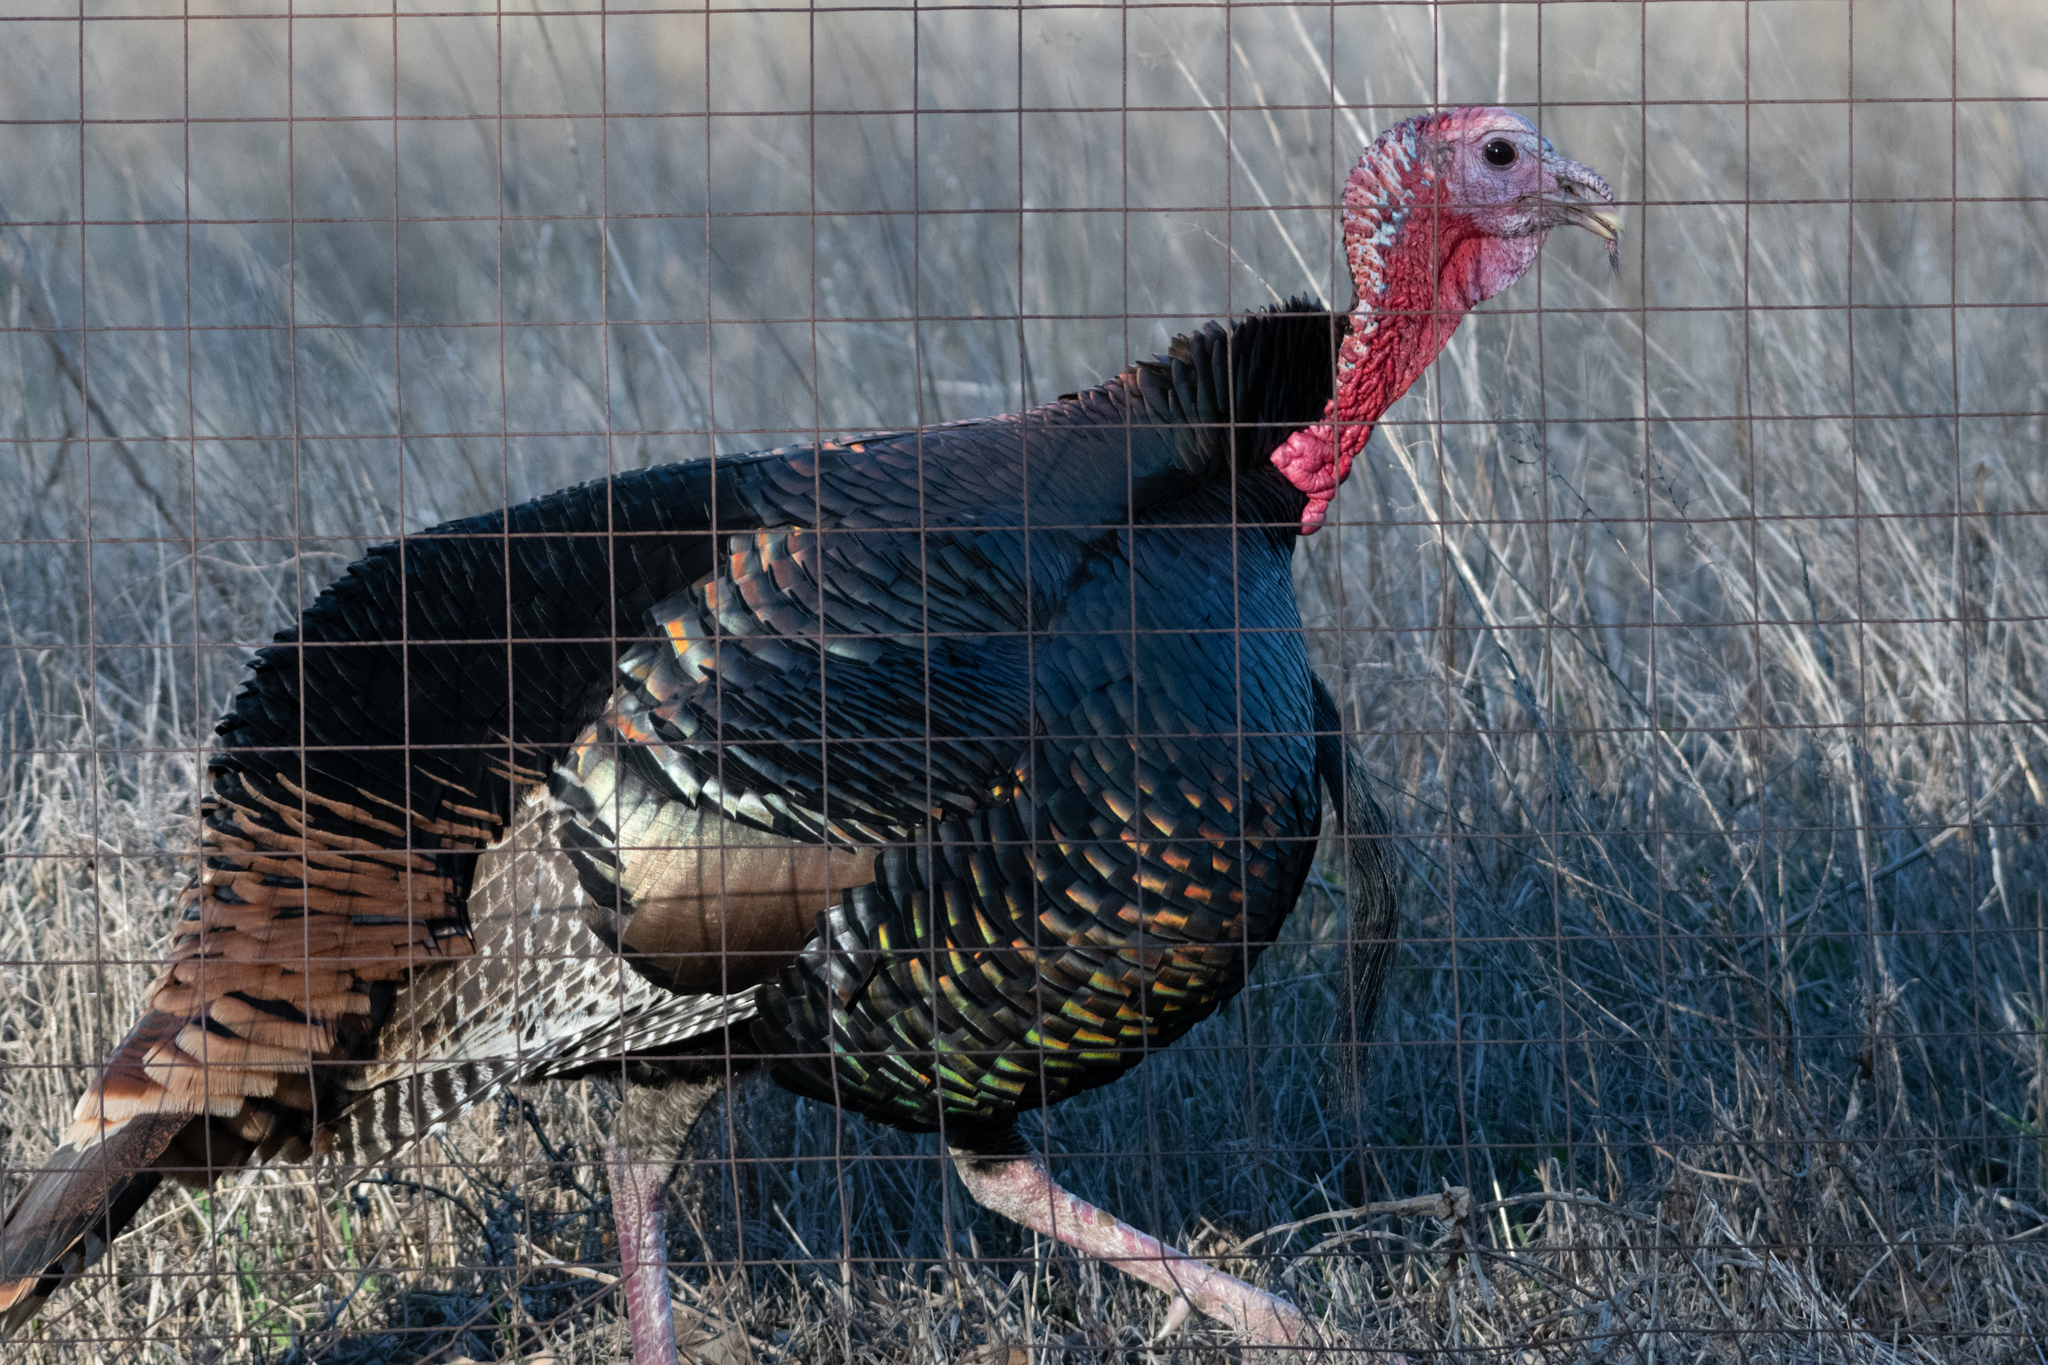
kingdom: Animalia
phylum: Chordata
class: Aves
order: Galliformes
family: Phasianidae
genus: Meleagris
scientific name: Meleagris gallopavo
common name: Wild turkey
